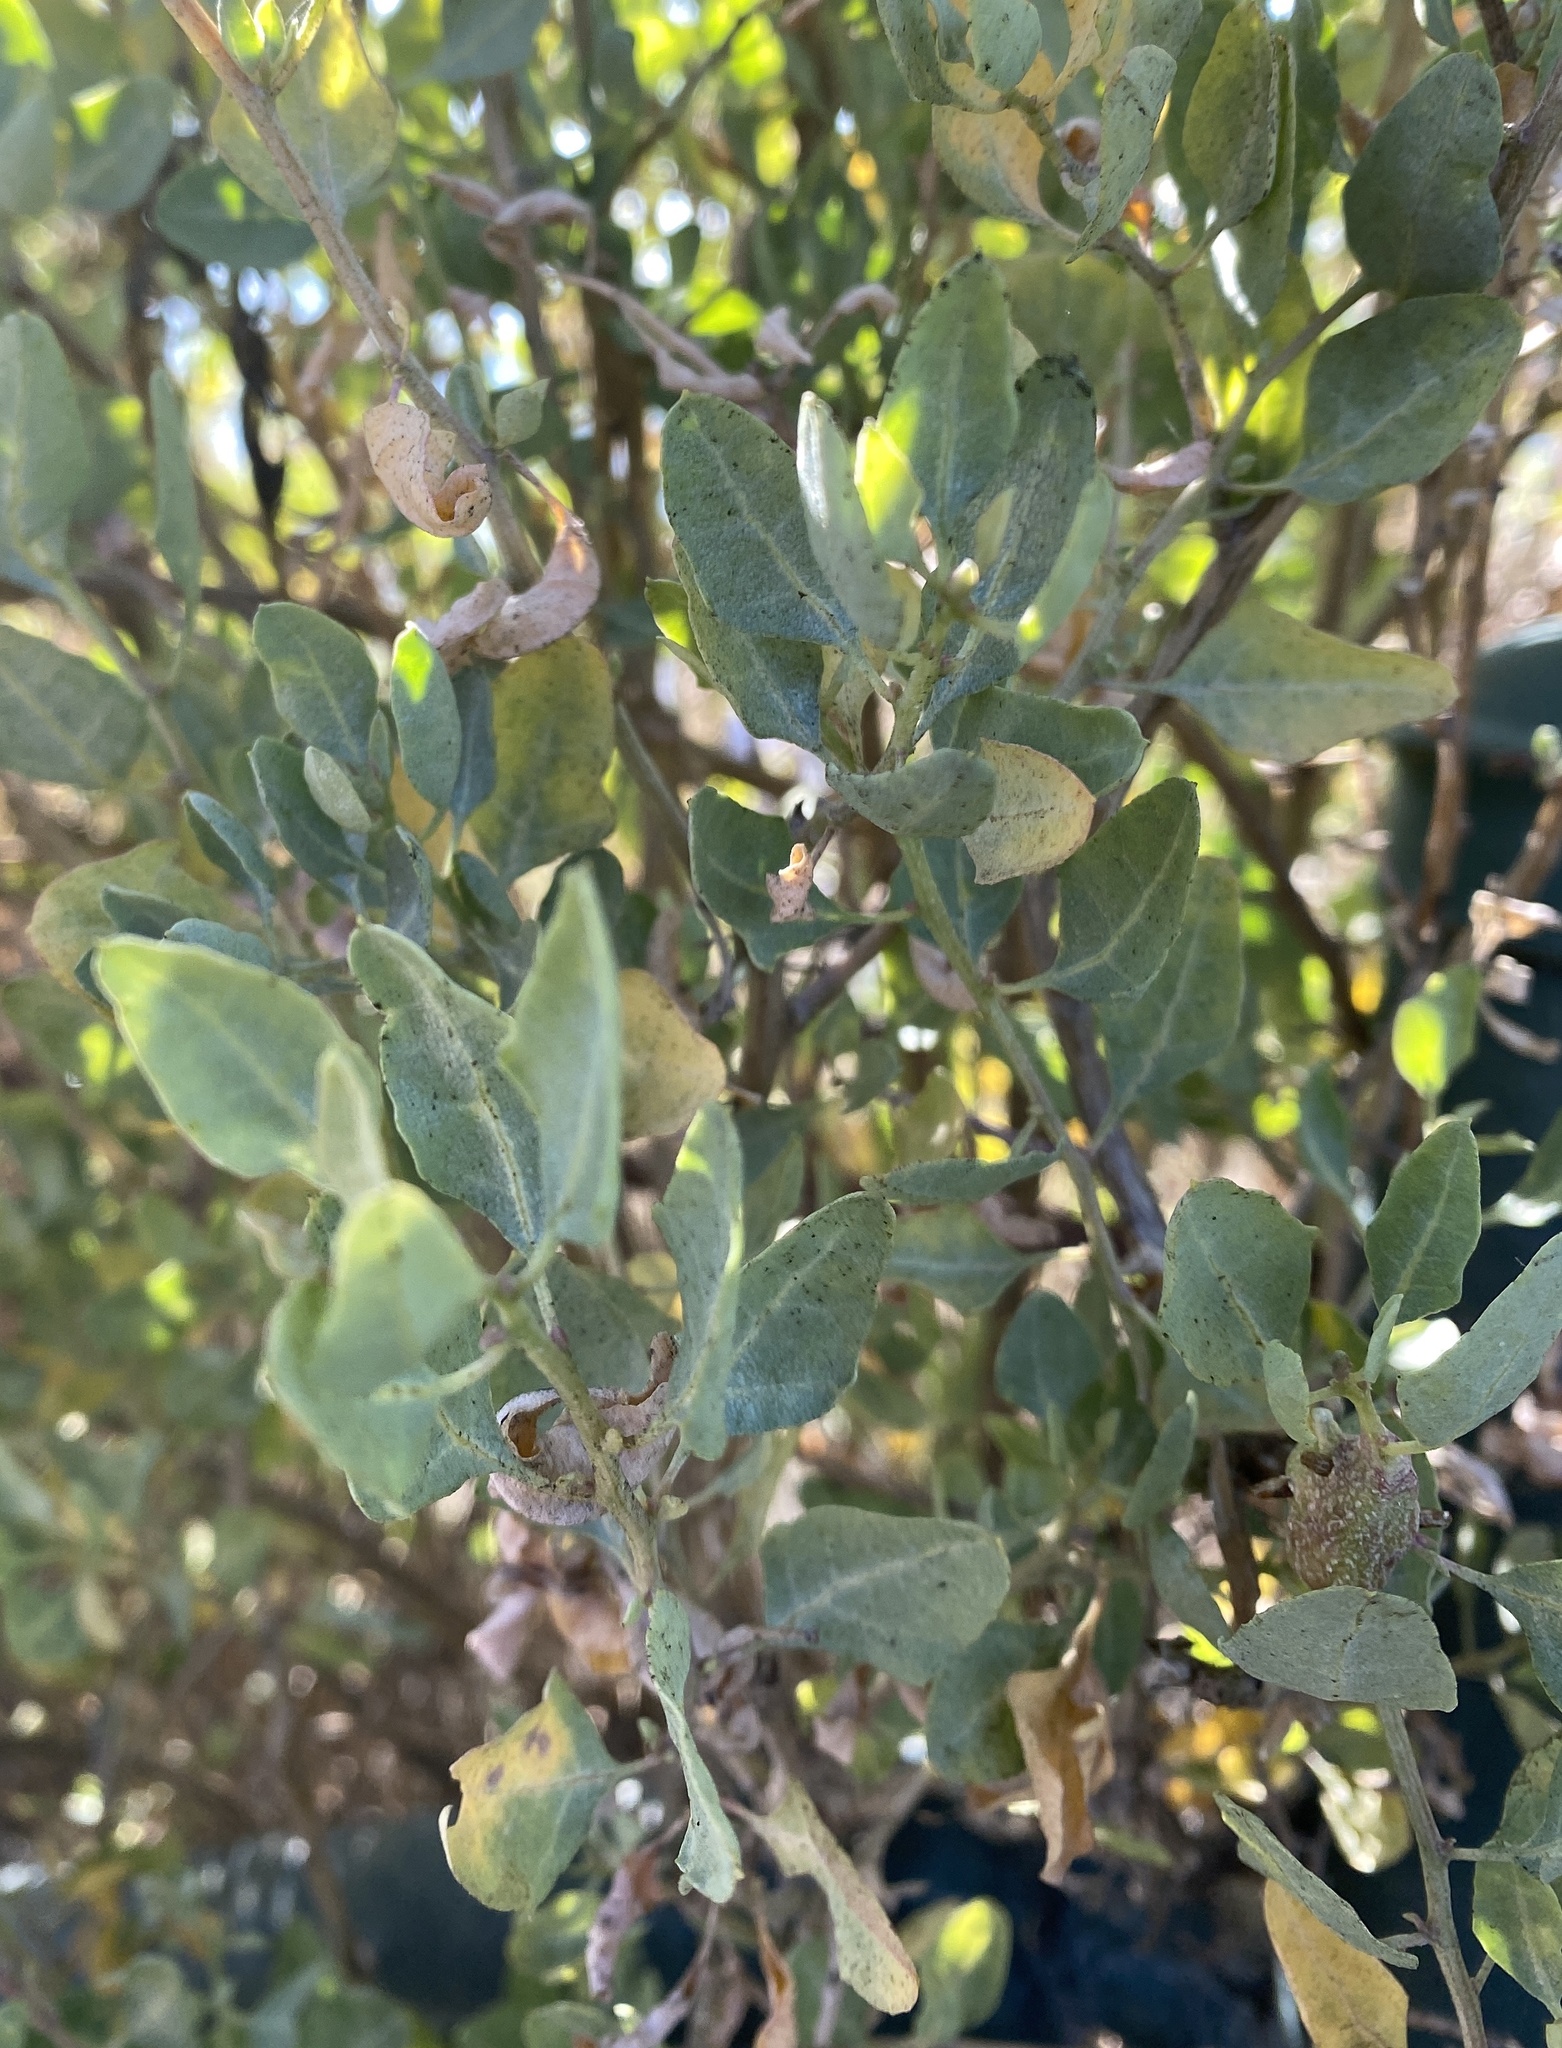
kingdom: Plantae
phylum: Tracheophyta
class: Magnoliopsida
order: Caryophyllales
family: Amaranthaceae
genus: Atriplex
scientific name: Atriplex lentiformis
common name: Big saltbush
